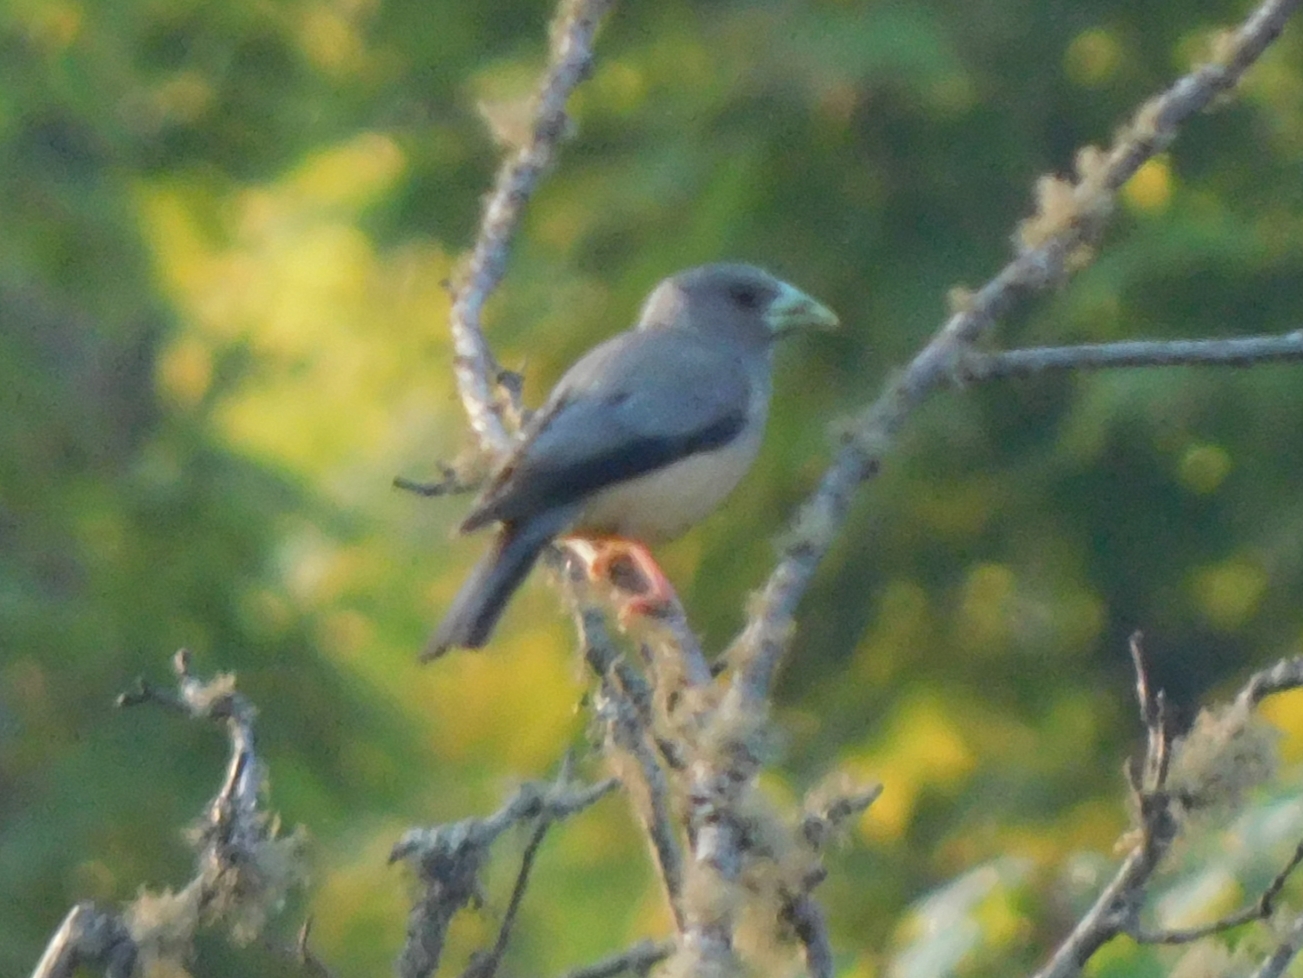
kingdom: Animalia
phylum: Chordata
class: Aves
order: Passeriformes
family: Fringillidae
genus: Mycerobas
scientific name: Mycerobas icterioides
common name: Black-and-yellow grosbeak
